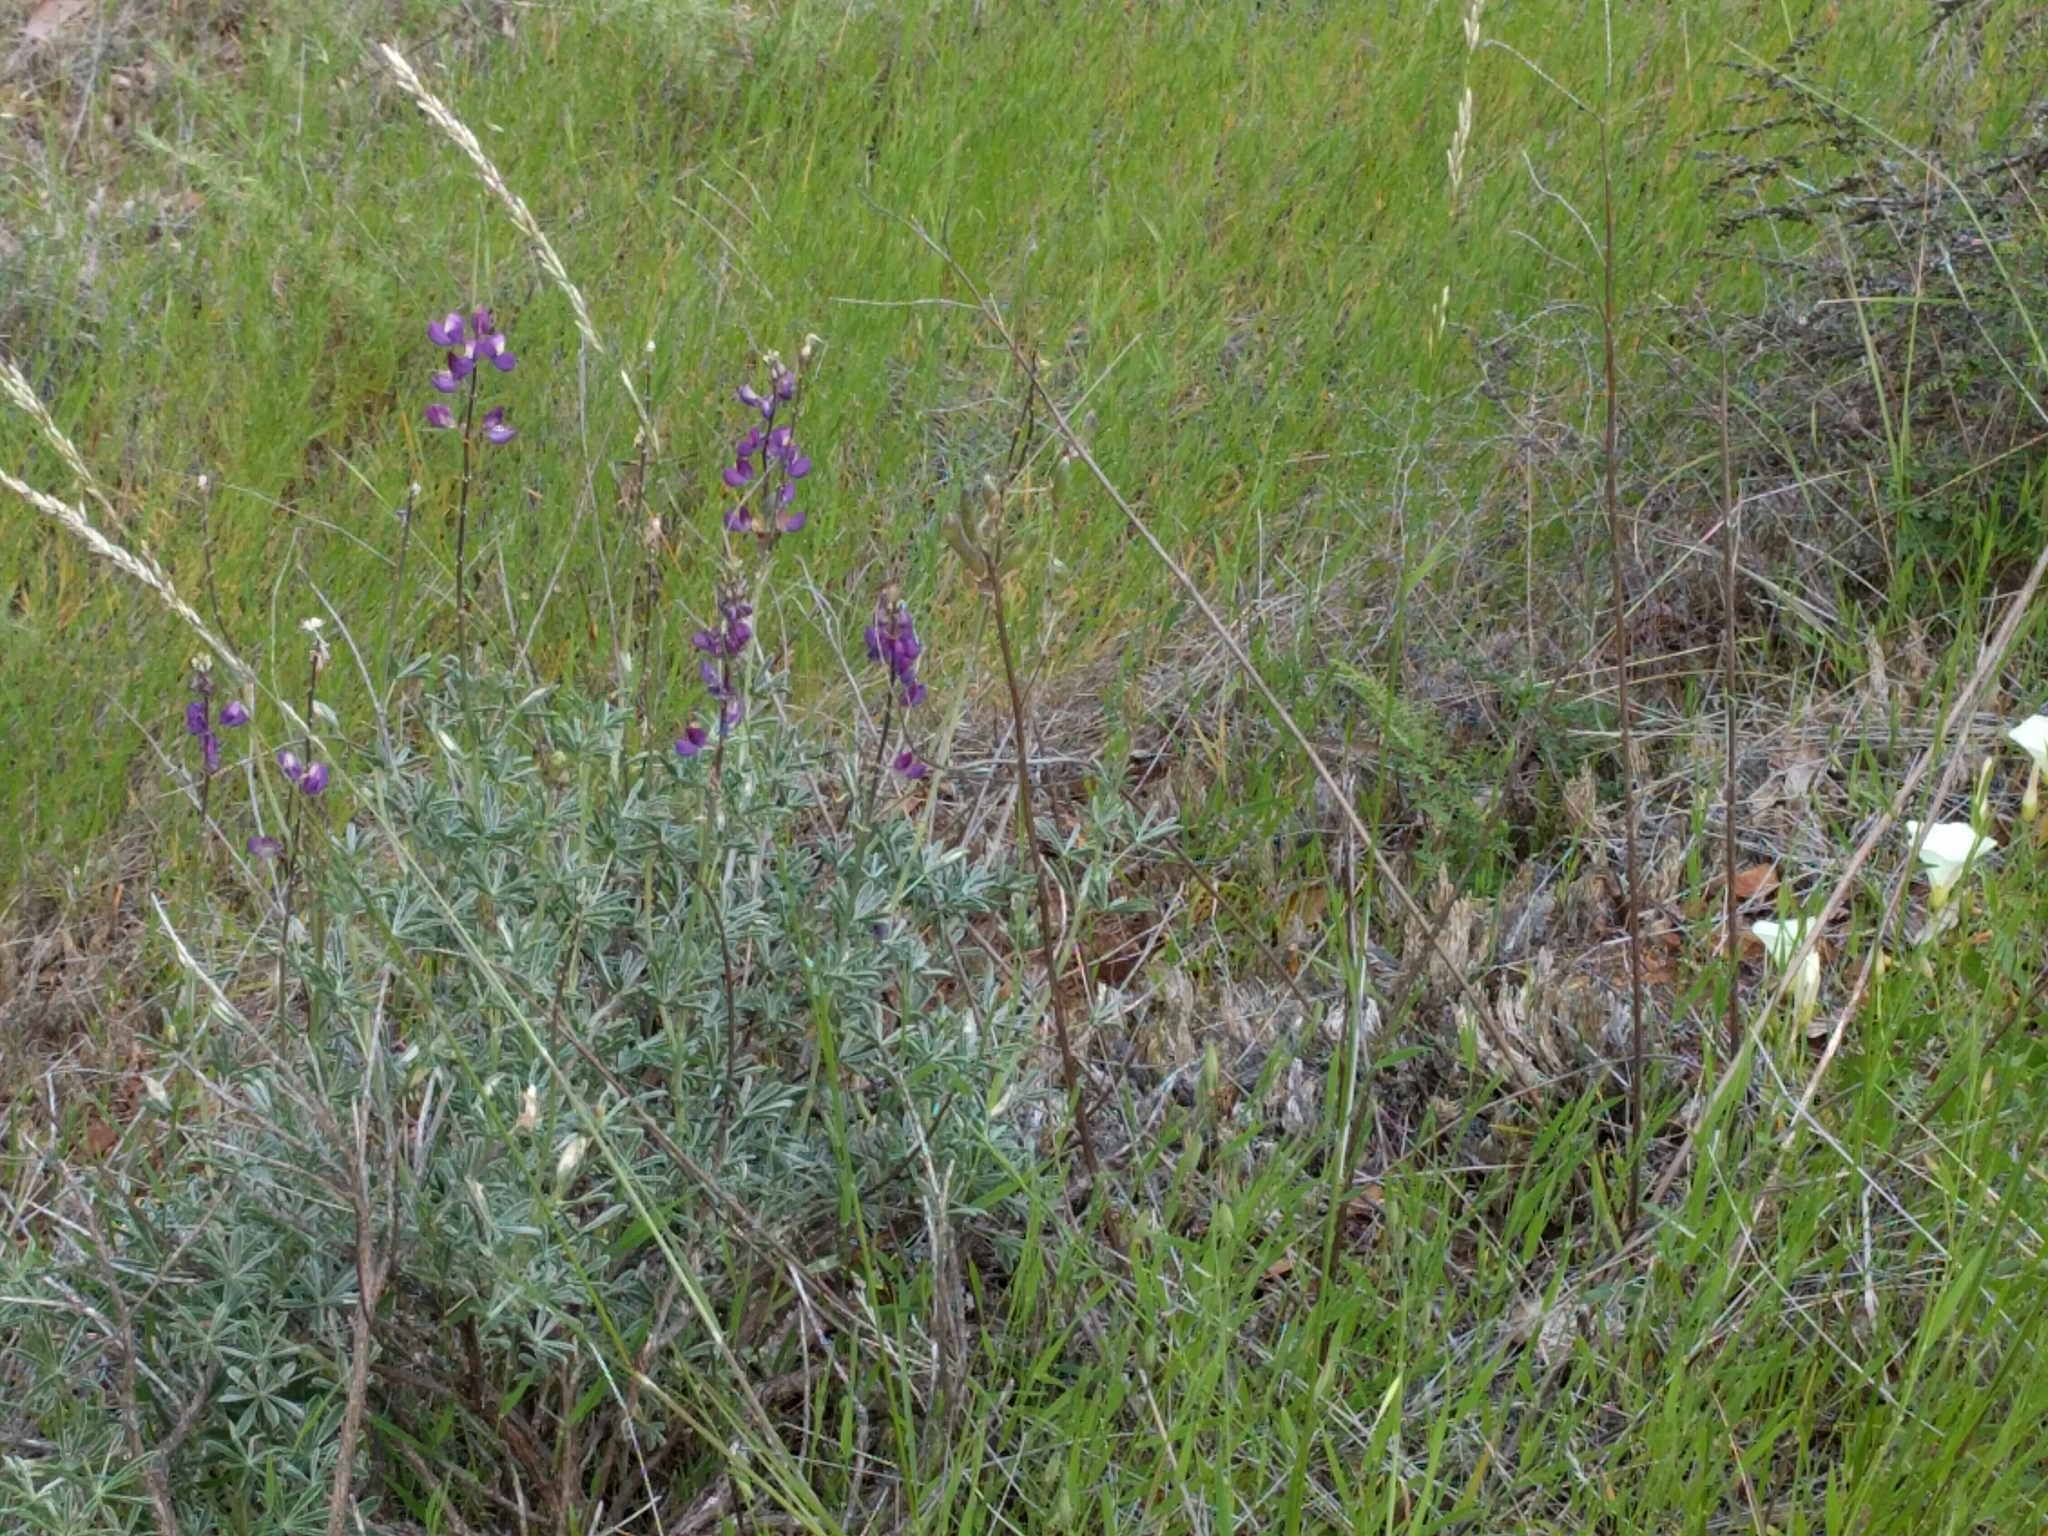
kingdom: Plantae
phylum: Tracheophyta
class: Magnoliopsida
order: Fabales
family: Fabaceae
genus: Lupinus
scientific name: Lupinus albifrons
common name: Foothill lupine
